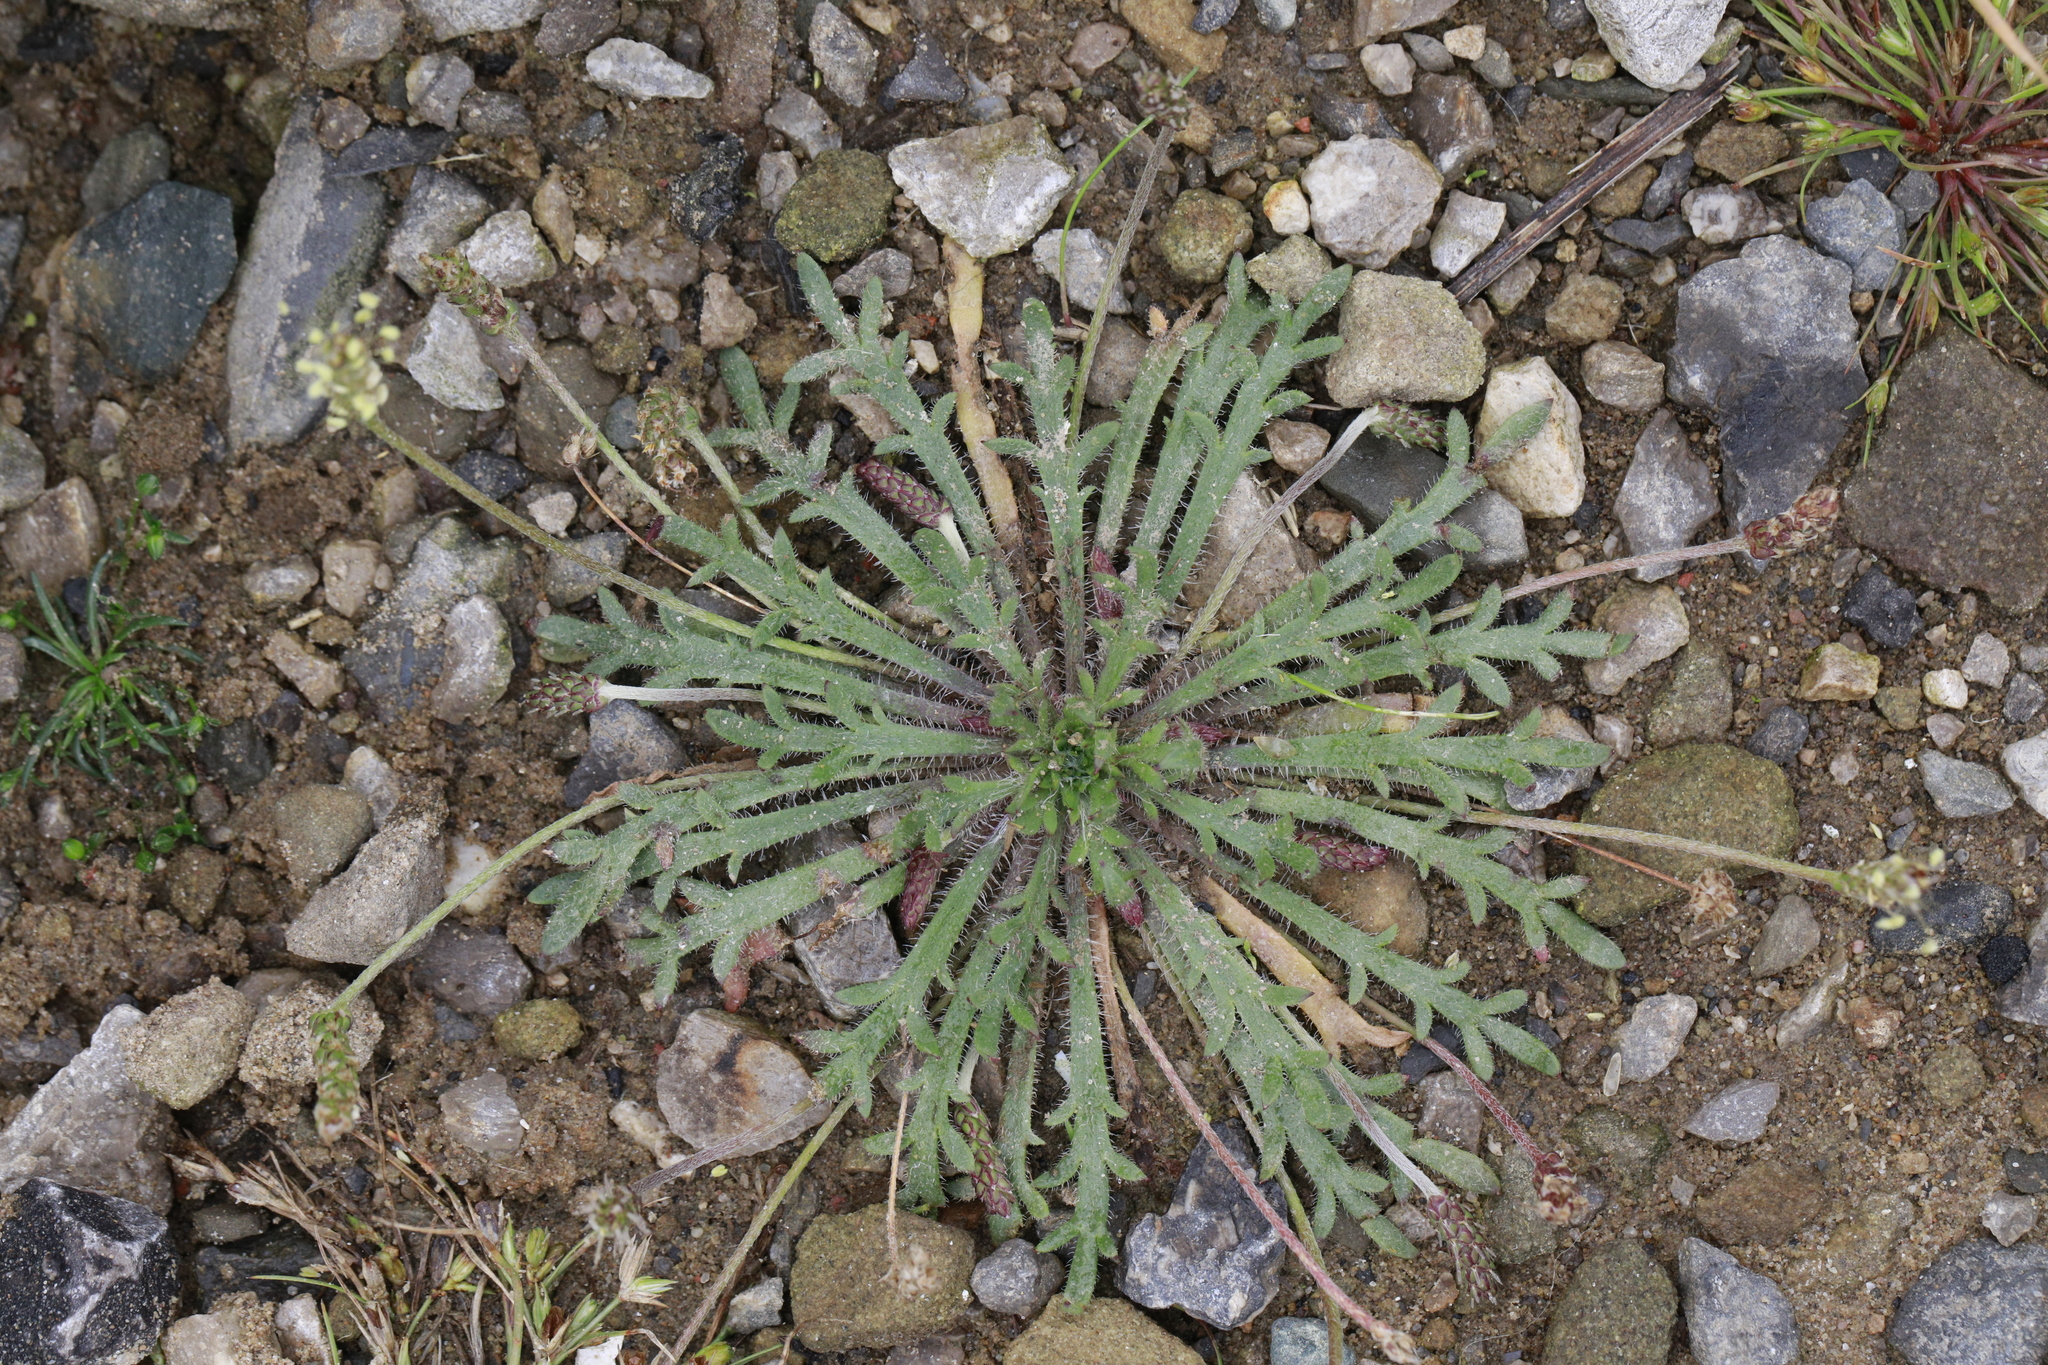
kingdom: Plantae
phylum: Tracheophyta
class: Magnoliopsida
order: Lamiales
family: Plantaginaceae
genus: Plantago
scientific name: Plantago coronopus
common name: Buck's-horn plantain
